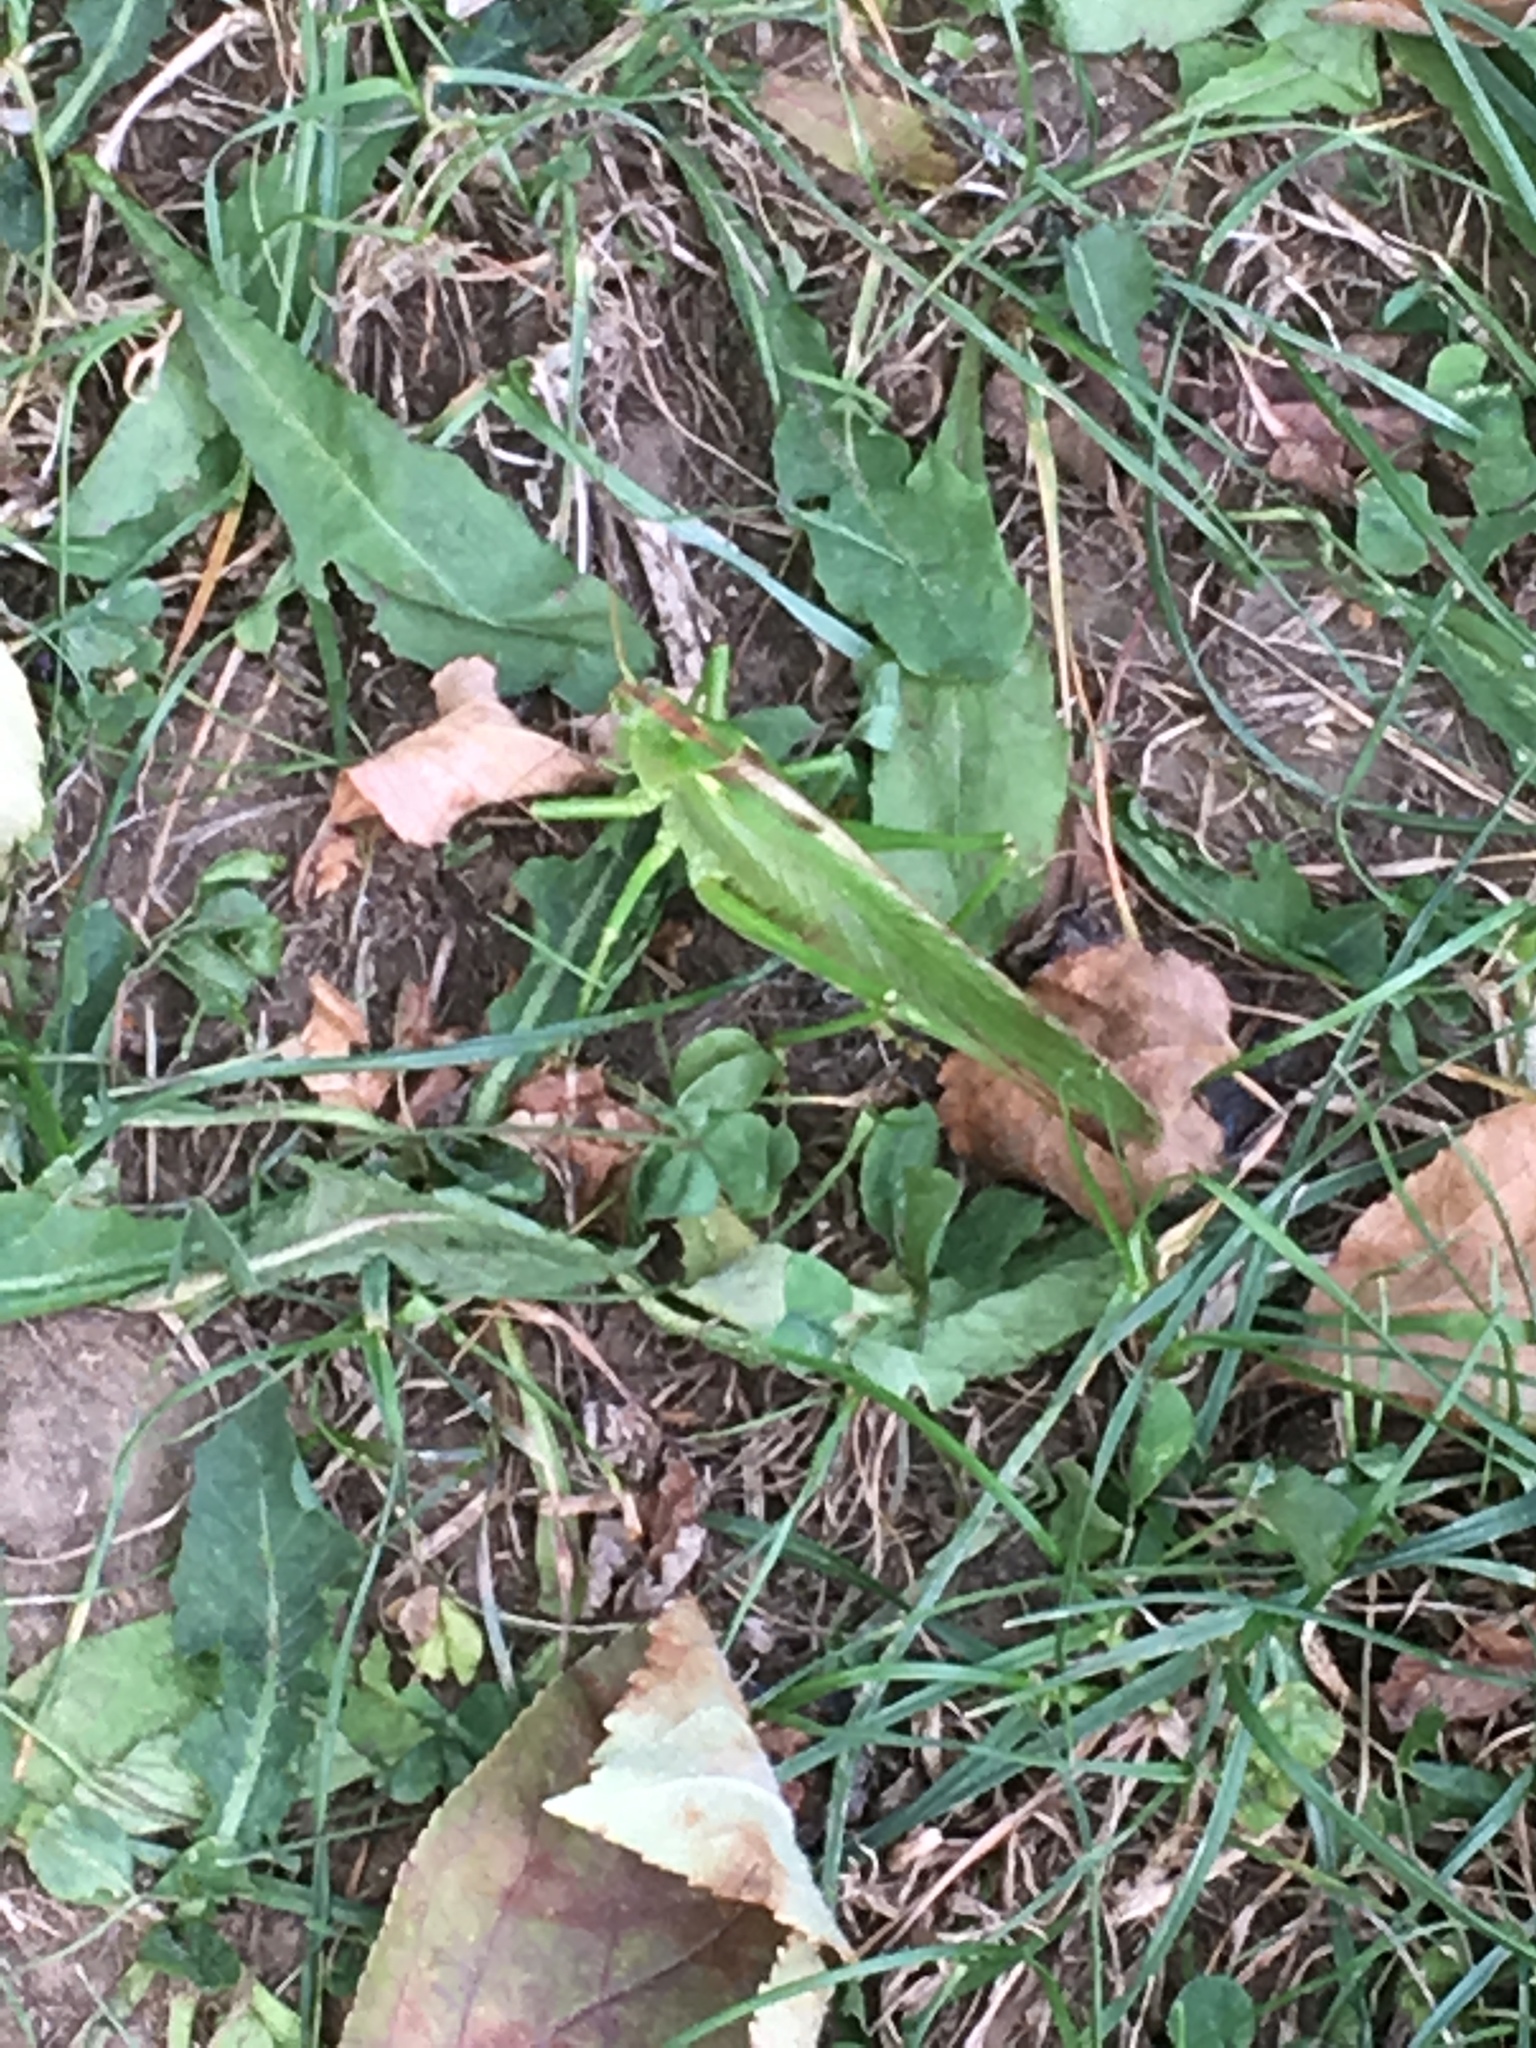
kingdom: Animalia
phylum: Arthropoda
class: Insecta
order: Orthoptera
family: Tettigoniidae
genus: Tettigonia
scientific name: Tettigonia viridissima
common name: Great green bush-cricket
